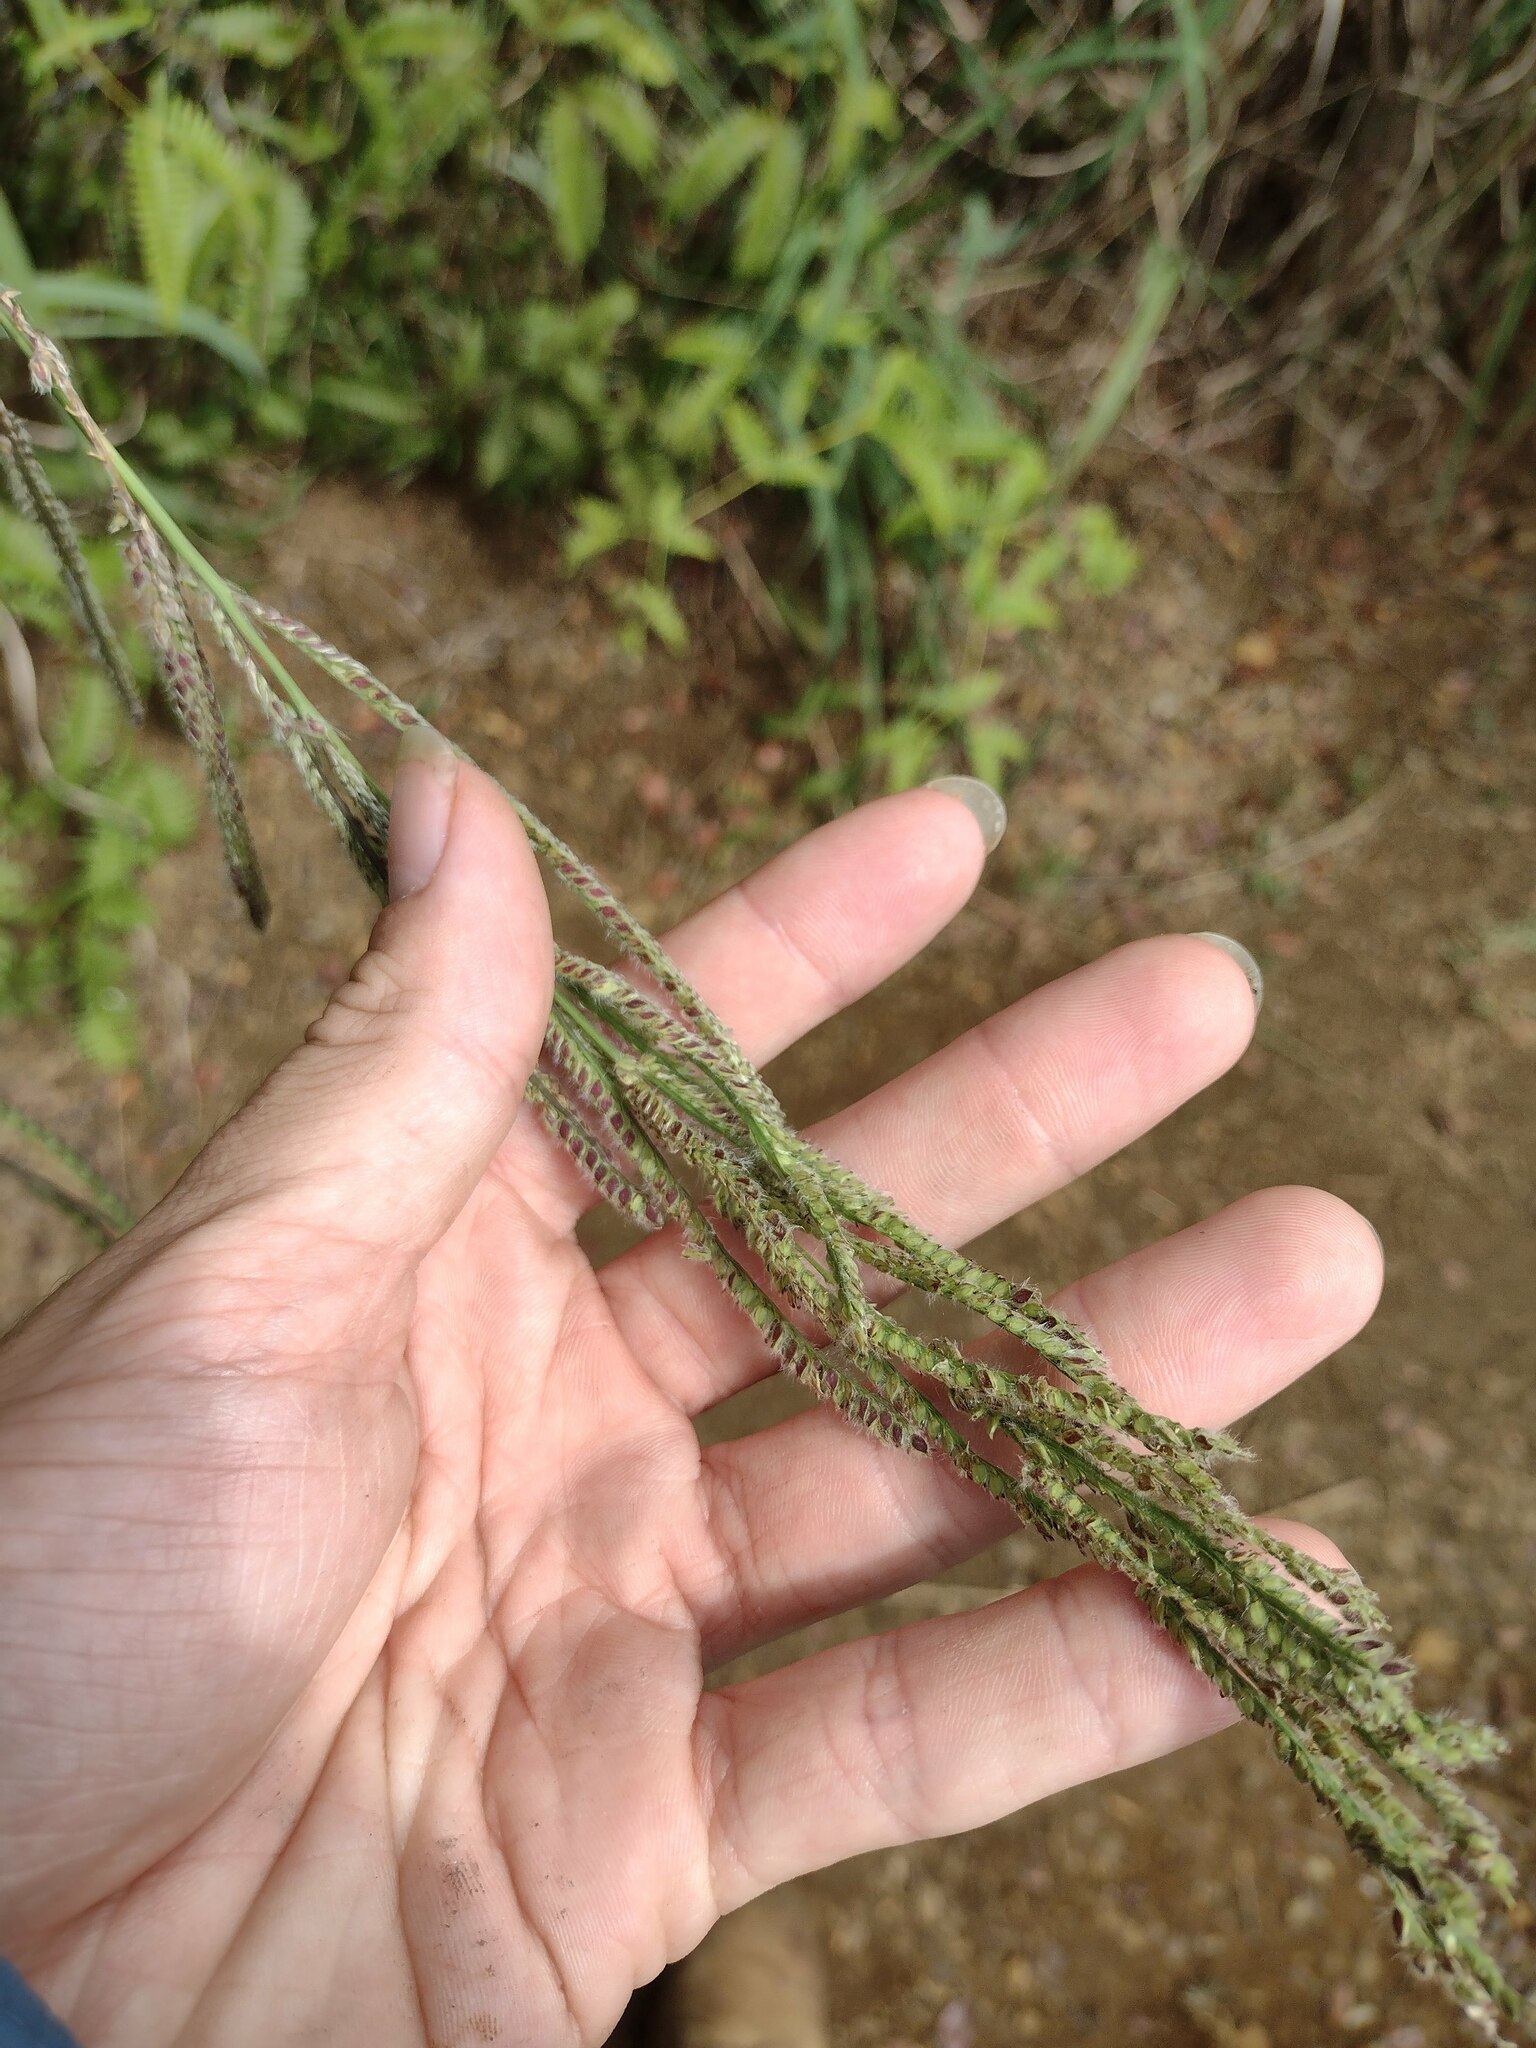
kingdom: Plantae
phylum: Tracheophyta
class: Liliopsida
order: Poales
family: Poaceae
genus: Paspalum
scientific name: Paspalum urvillei
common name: Vasey's grass
